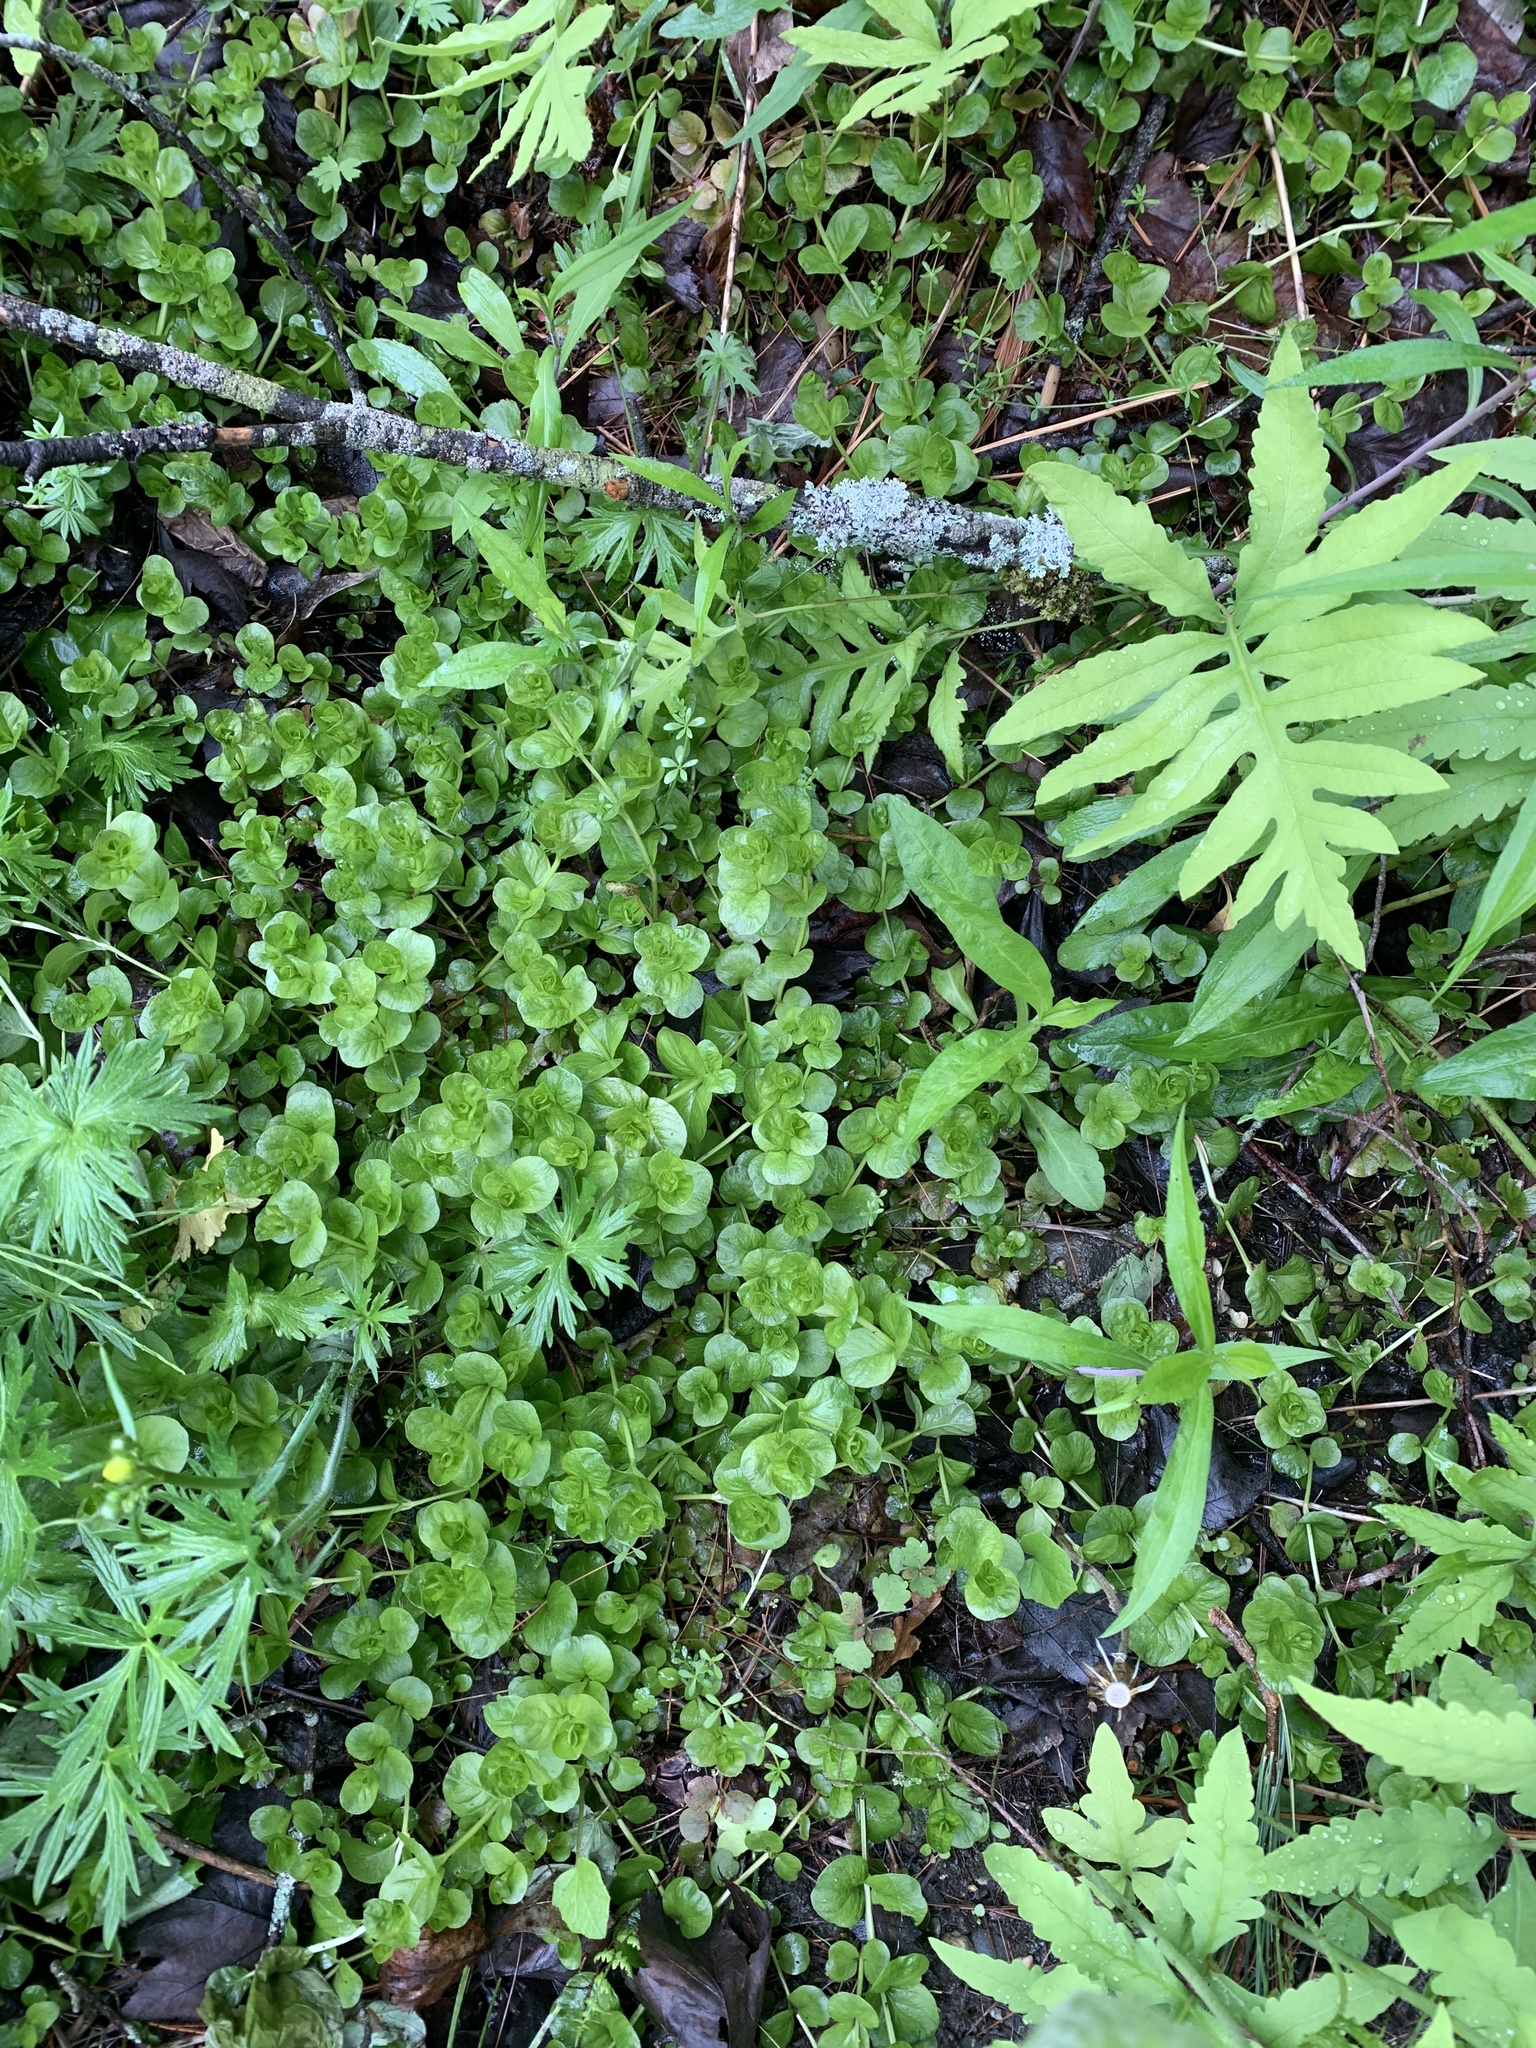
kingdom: Plantae
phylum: Tracheophyta
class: Magnoliopsida
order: Ericales
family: Primulaceae
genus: Lysimachia
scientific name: Lysimachia nummularia
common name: Moneywort
